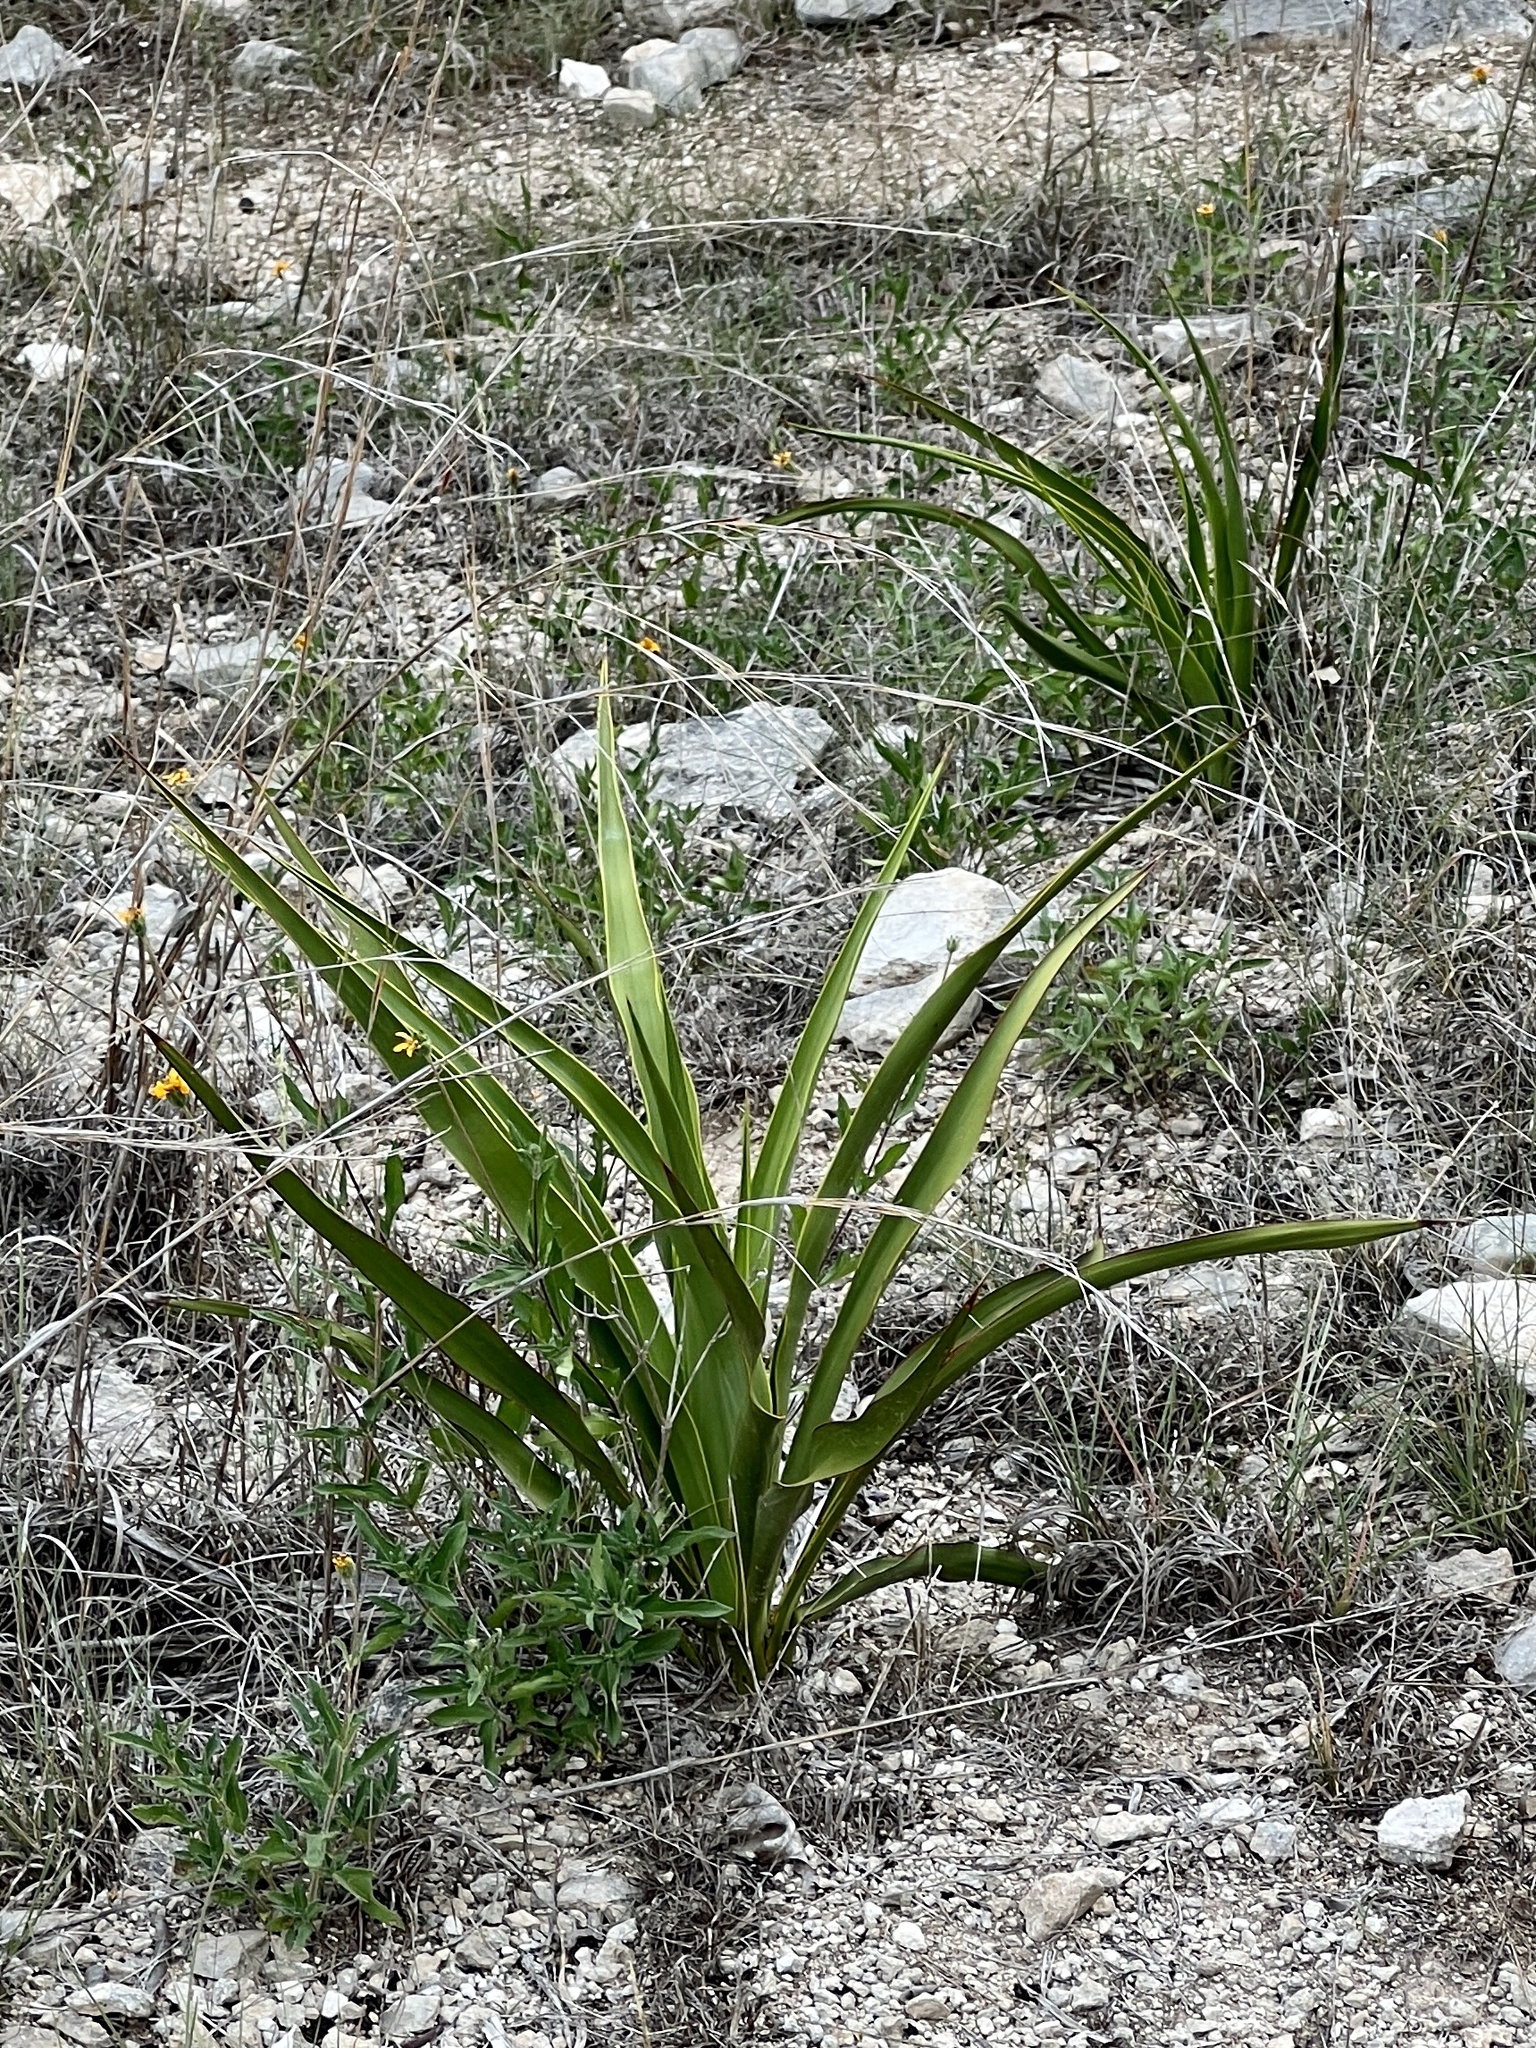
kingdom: Plantae
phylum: Tracheophyta
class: Liliopsida
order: Asparagales
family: Asparagaceae
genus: Yucca
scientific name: Yucca rupicola
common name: Twisted-leaf spanish-dagger
